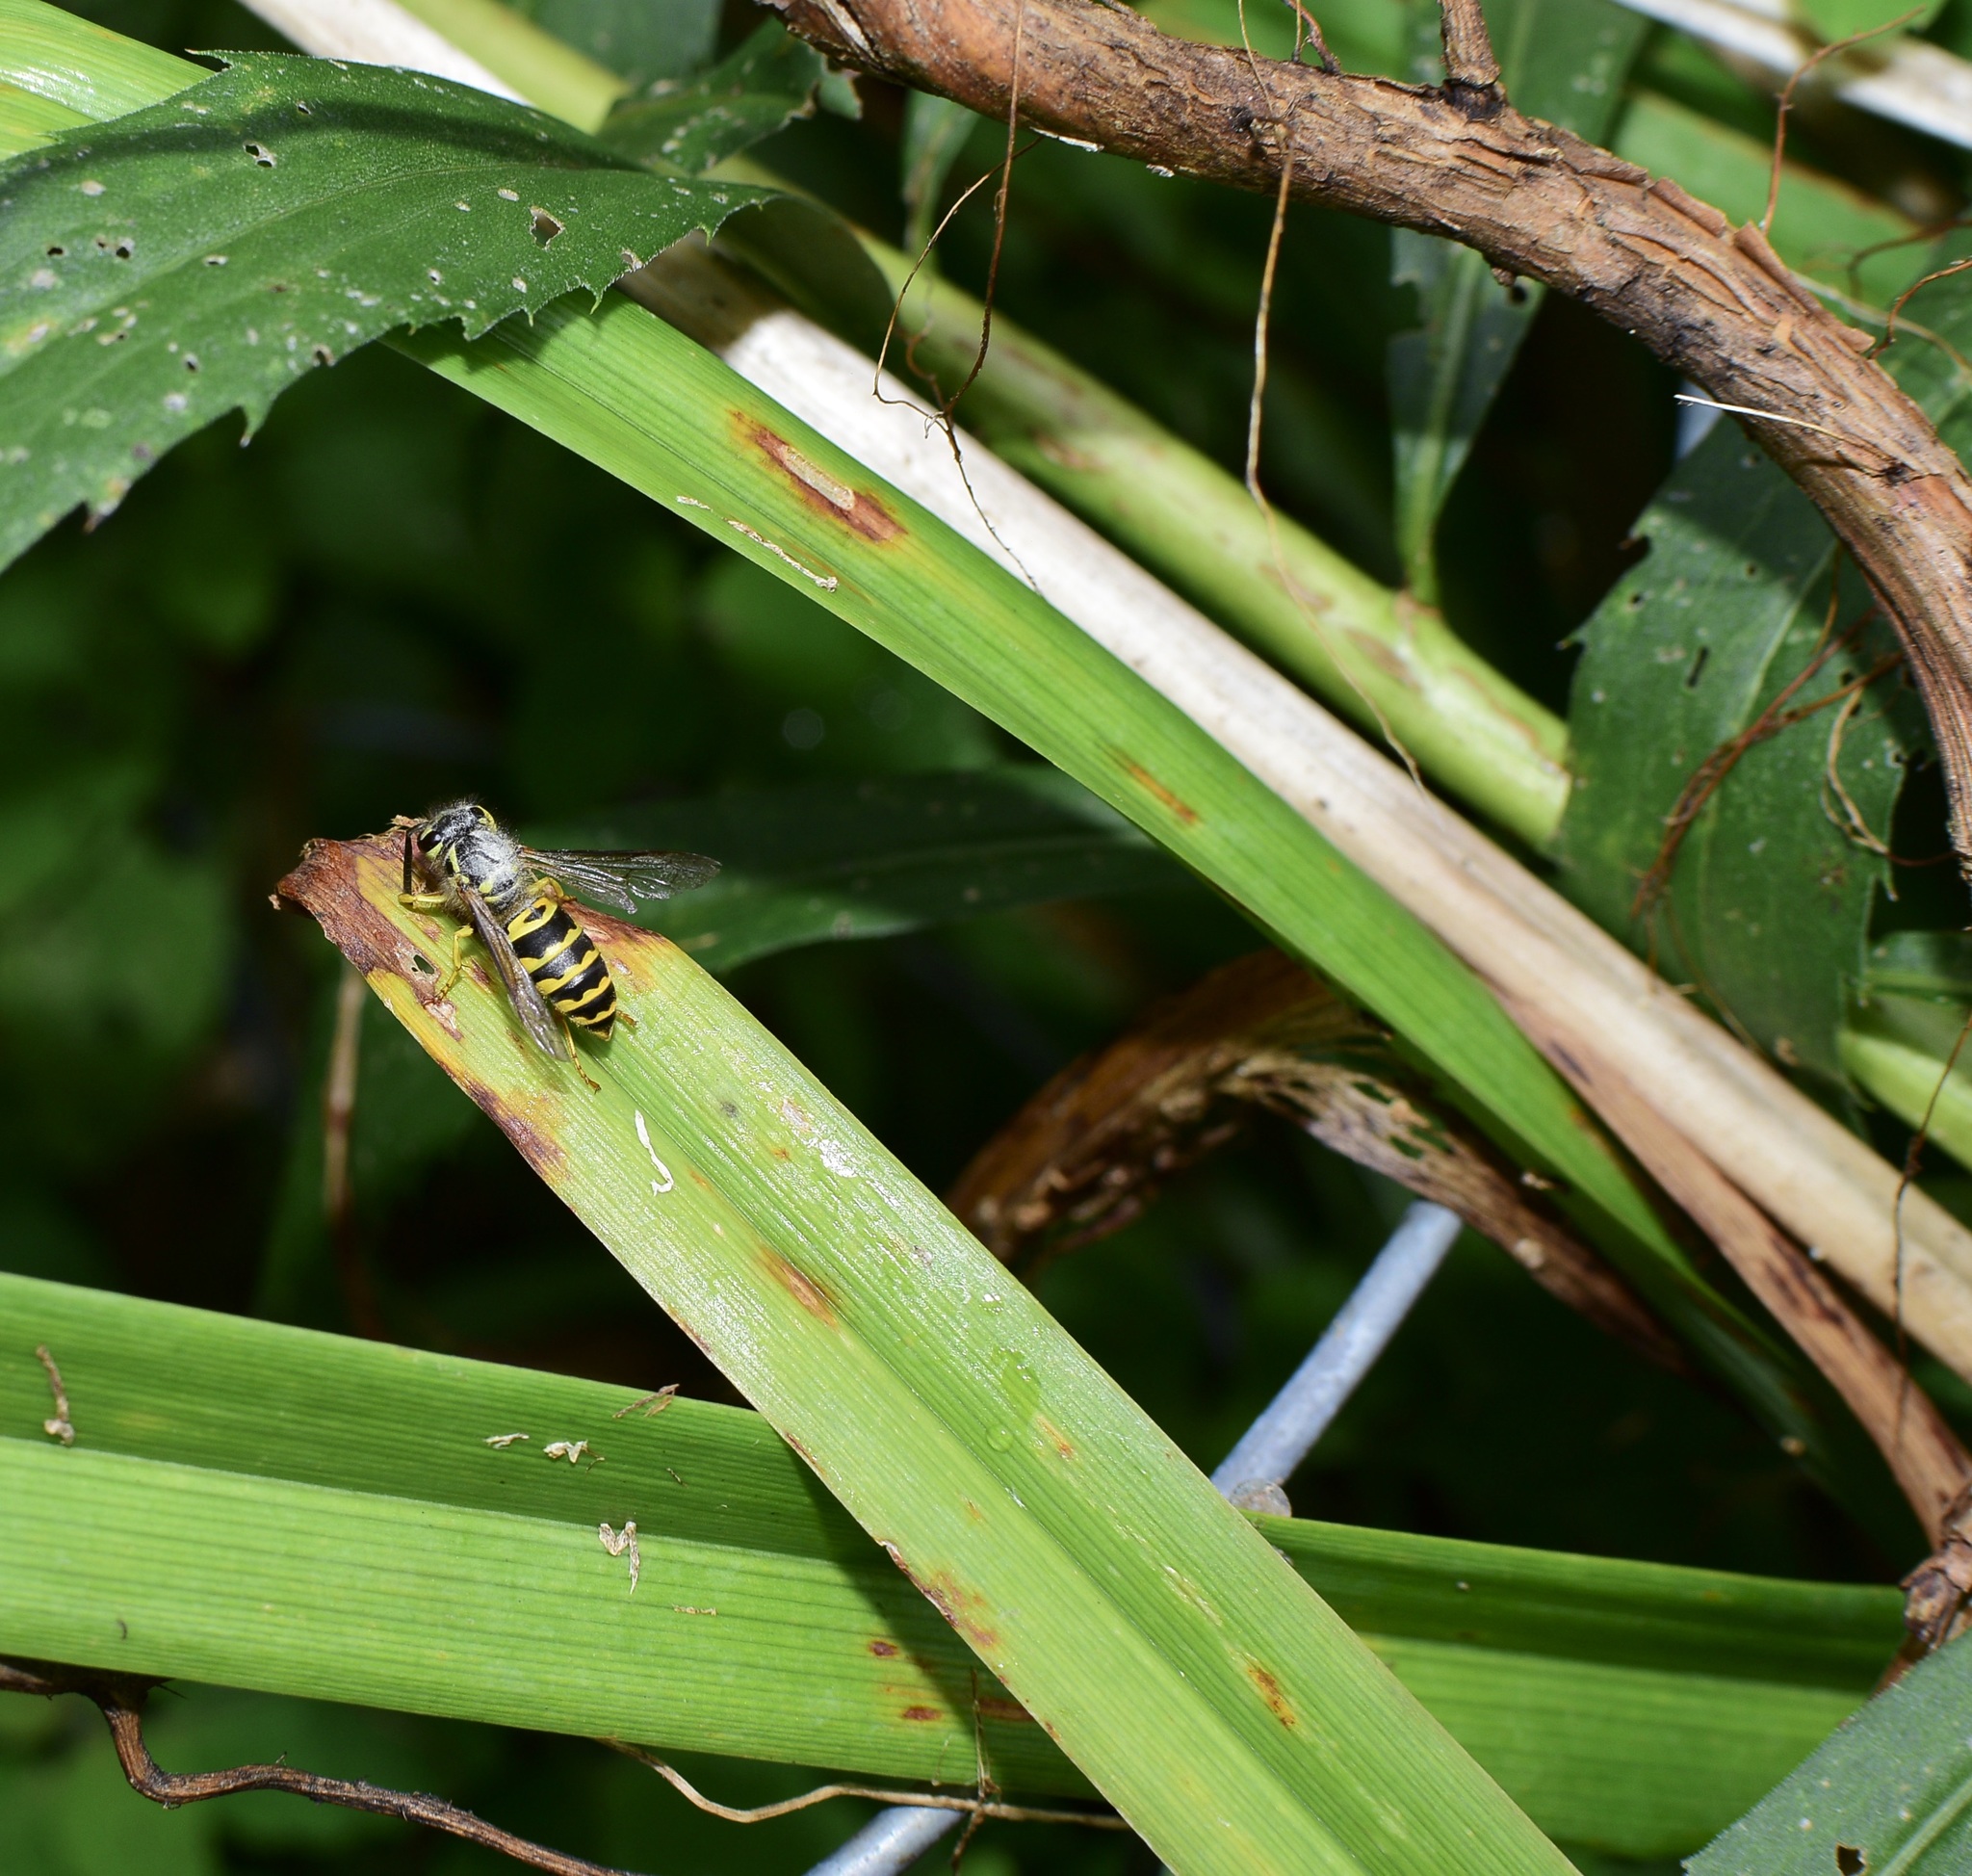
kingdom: Animalia
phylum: Arthropoda
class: Insecta
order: Hymenoptera
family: Vespidae
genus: Vespula
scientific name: Vespula maculifrons
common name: Eastern yellowjacket
